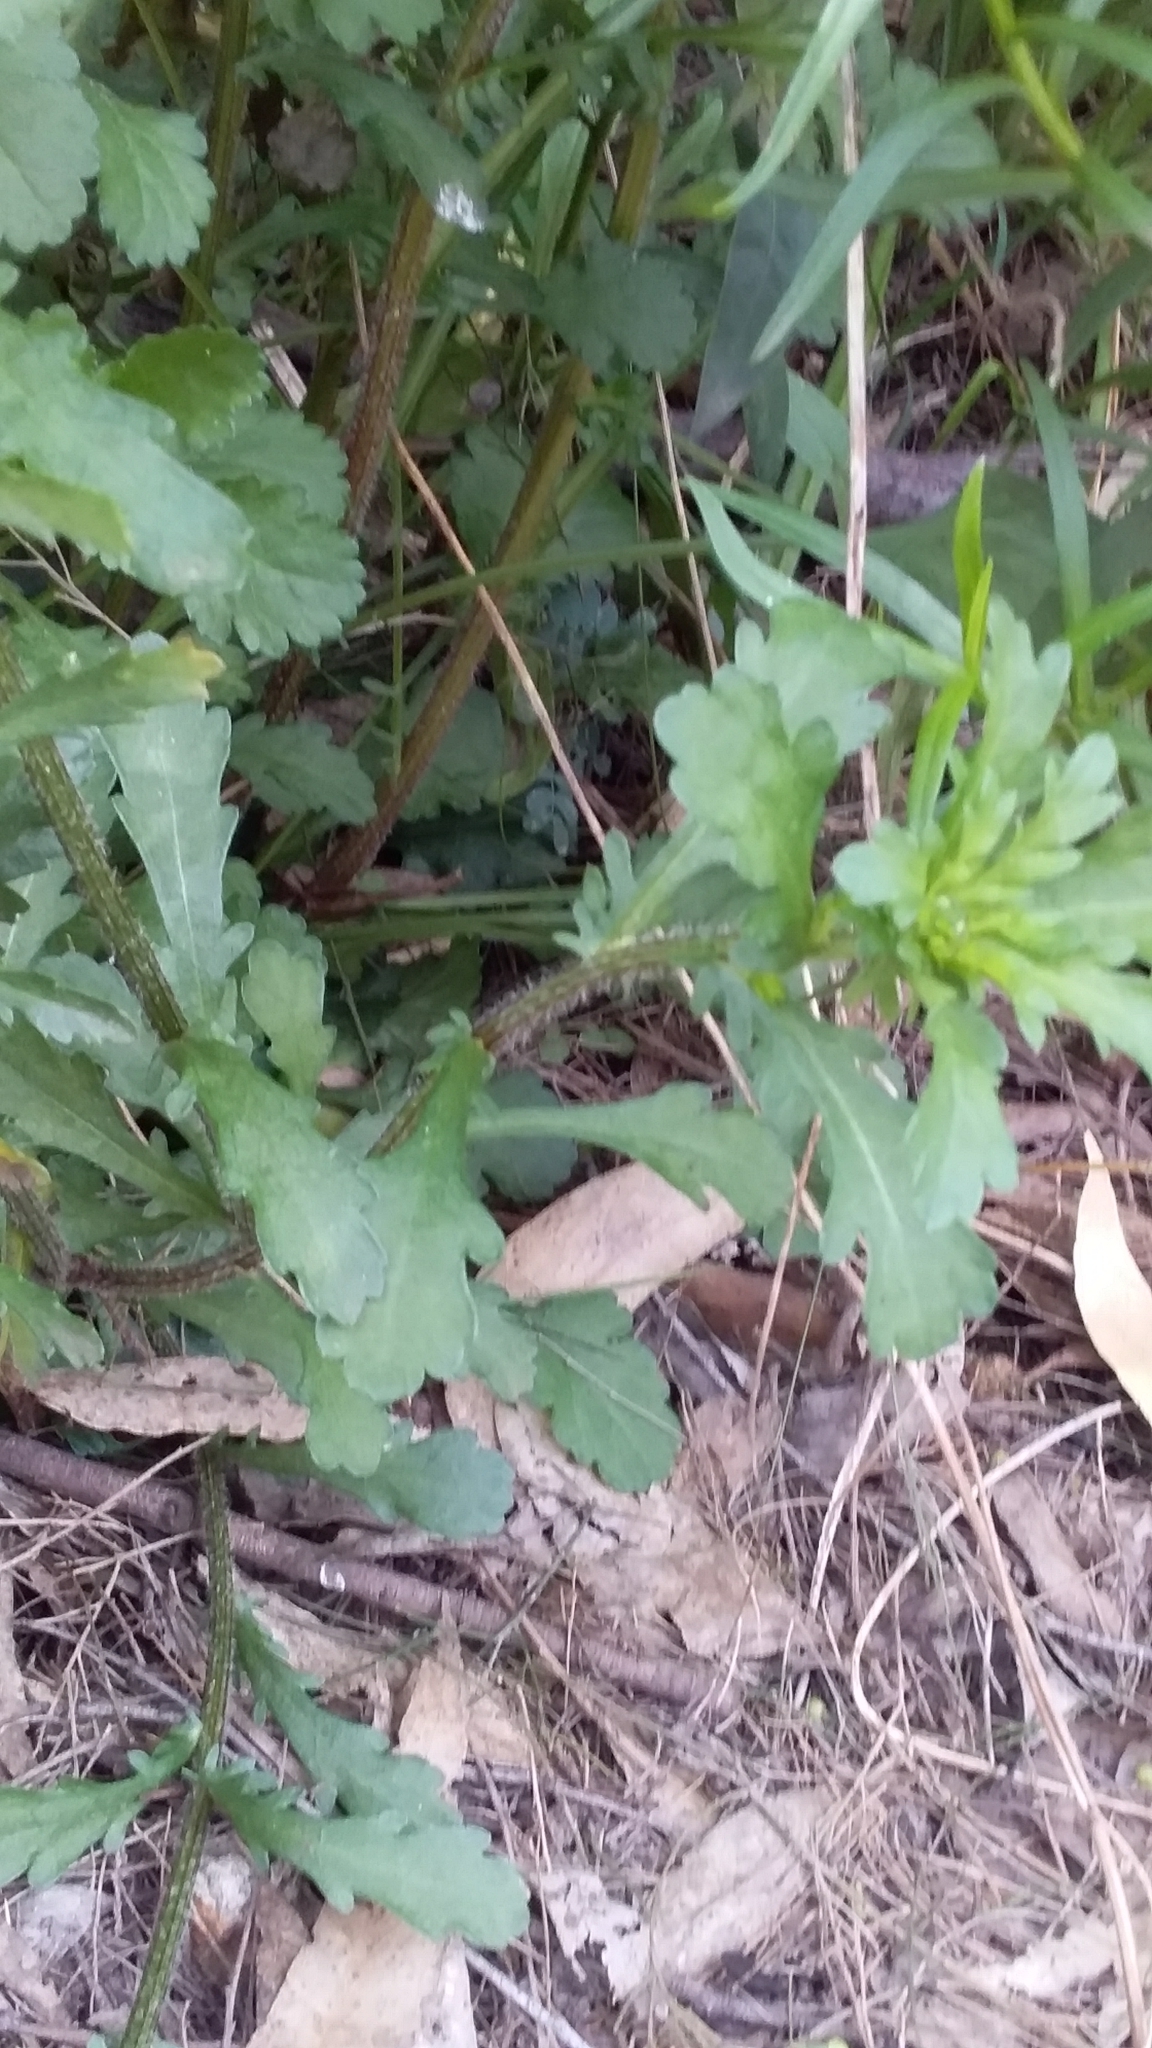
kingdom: Plantae
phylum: Tracheophyta
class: Magnoliopsida
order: Asterales
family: Asteraceae
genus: Leucanthemum
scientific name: Leucanthemum vulgare
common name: Oxeye daisy
